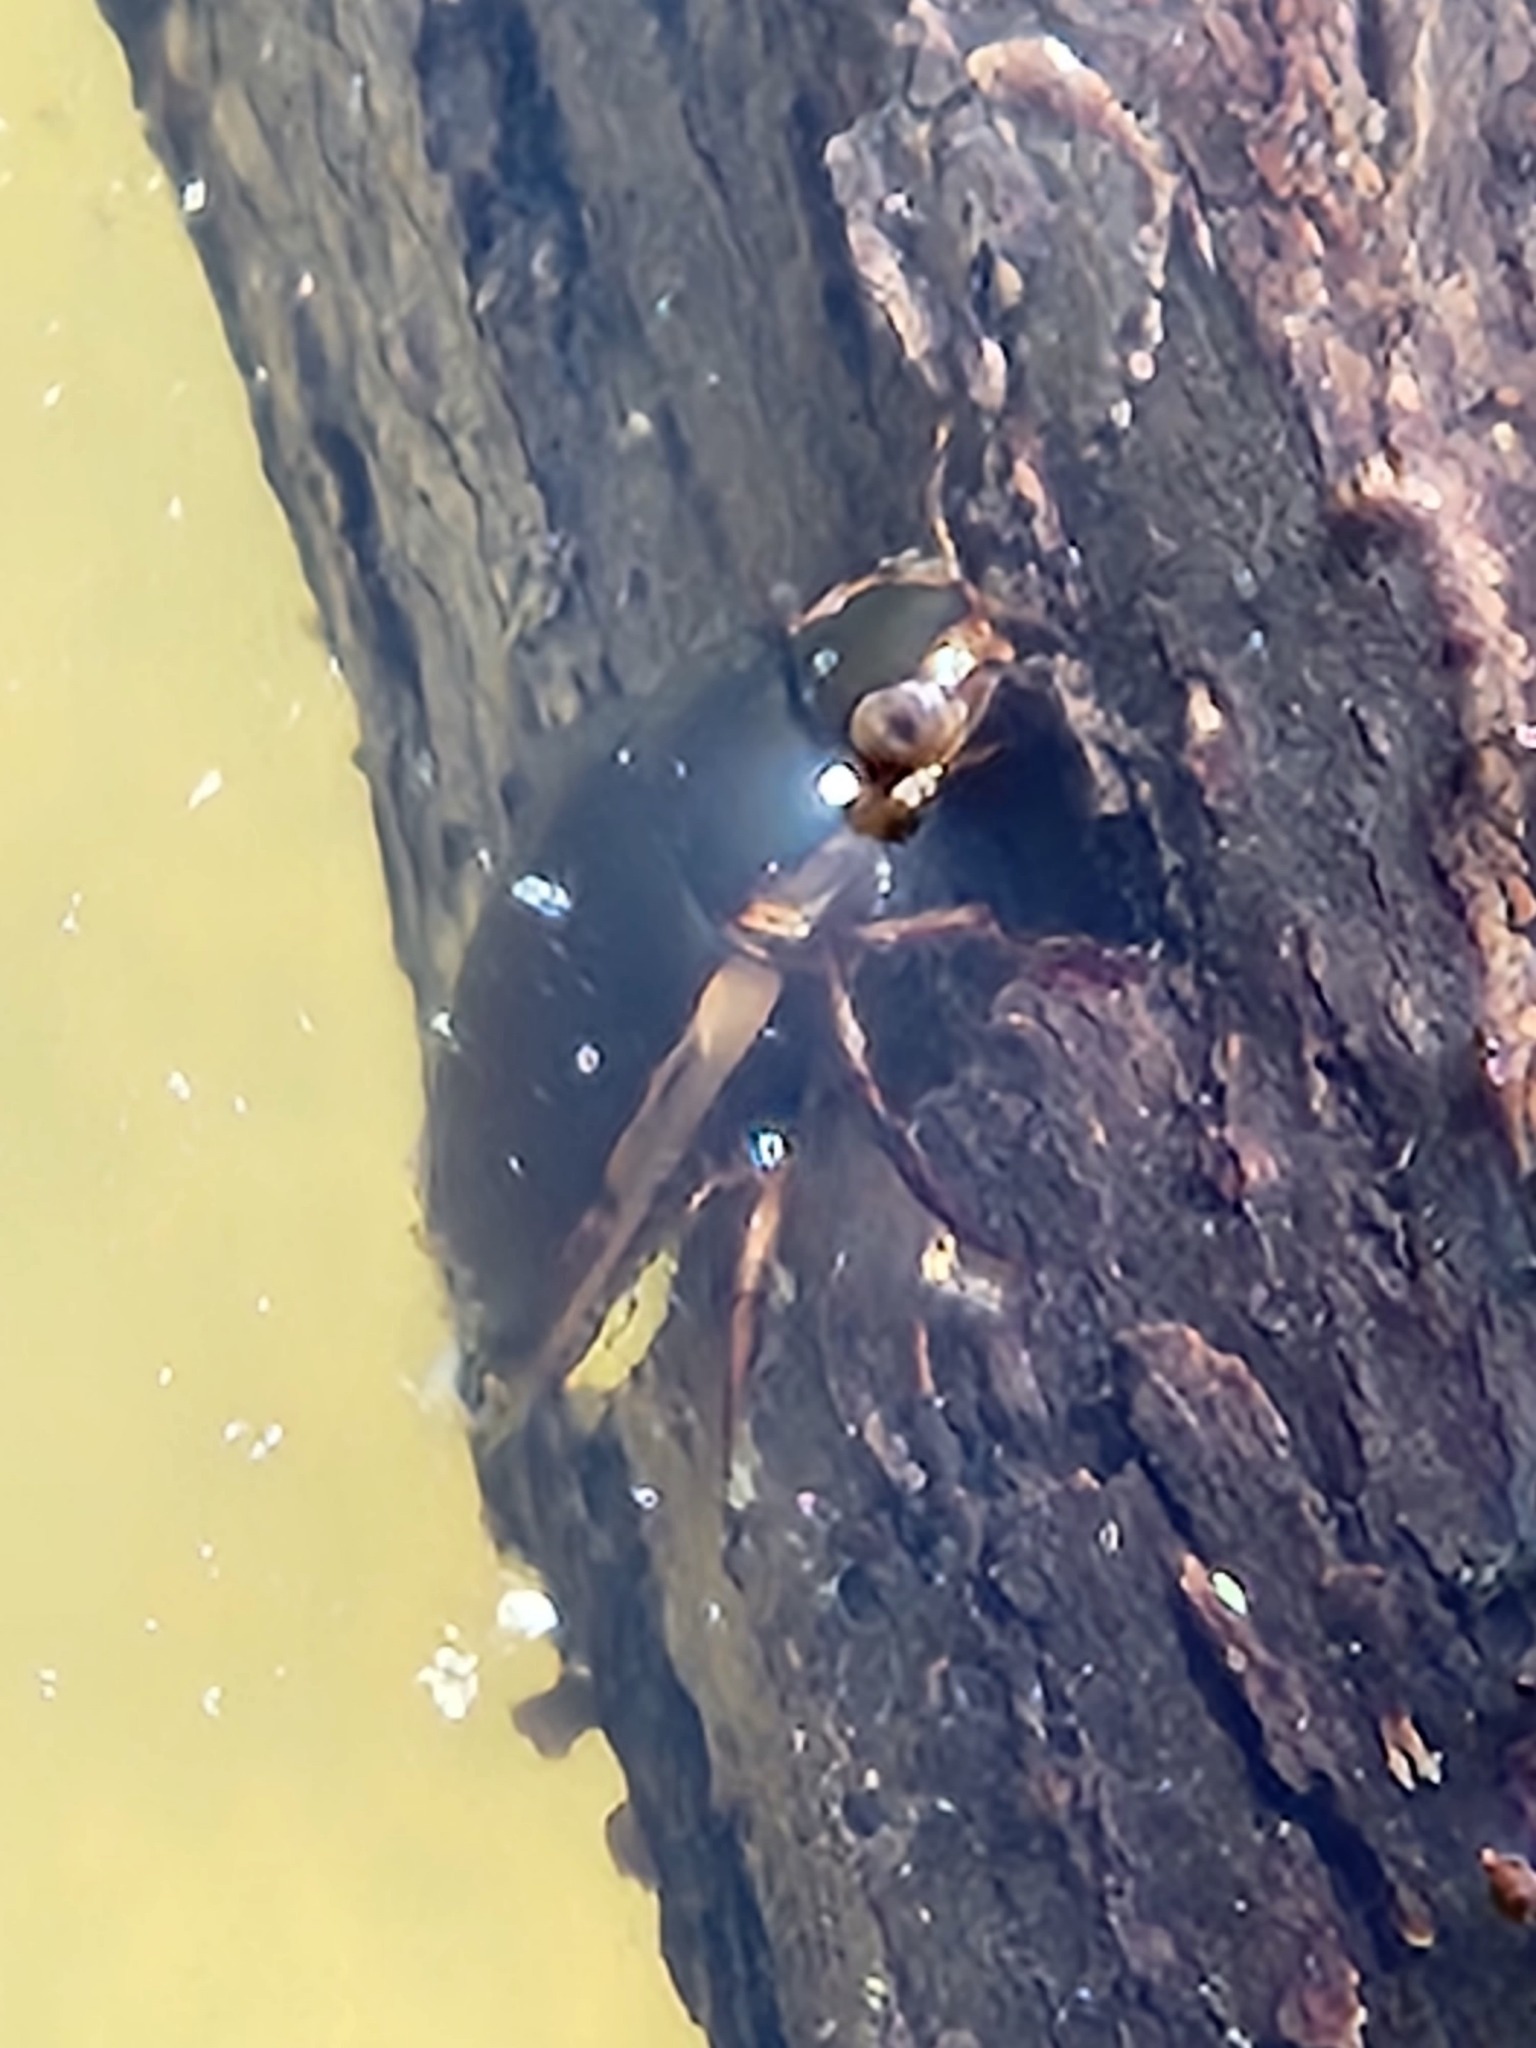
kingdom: Animalia
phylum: Arthropoda
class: Insecta
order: Coleoptera
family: Hydrophilidae
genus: Tropisternus
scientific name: Tropisternus lateralis
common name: Lateral-banded water scavenger beetle
